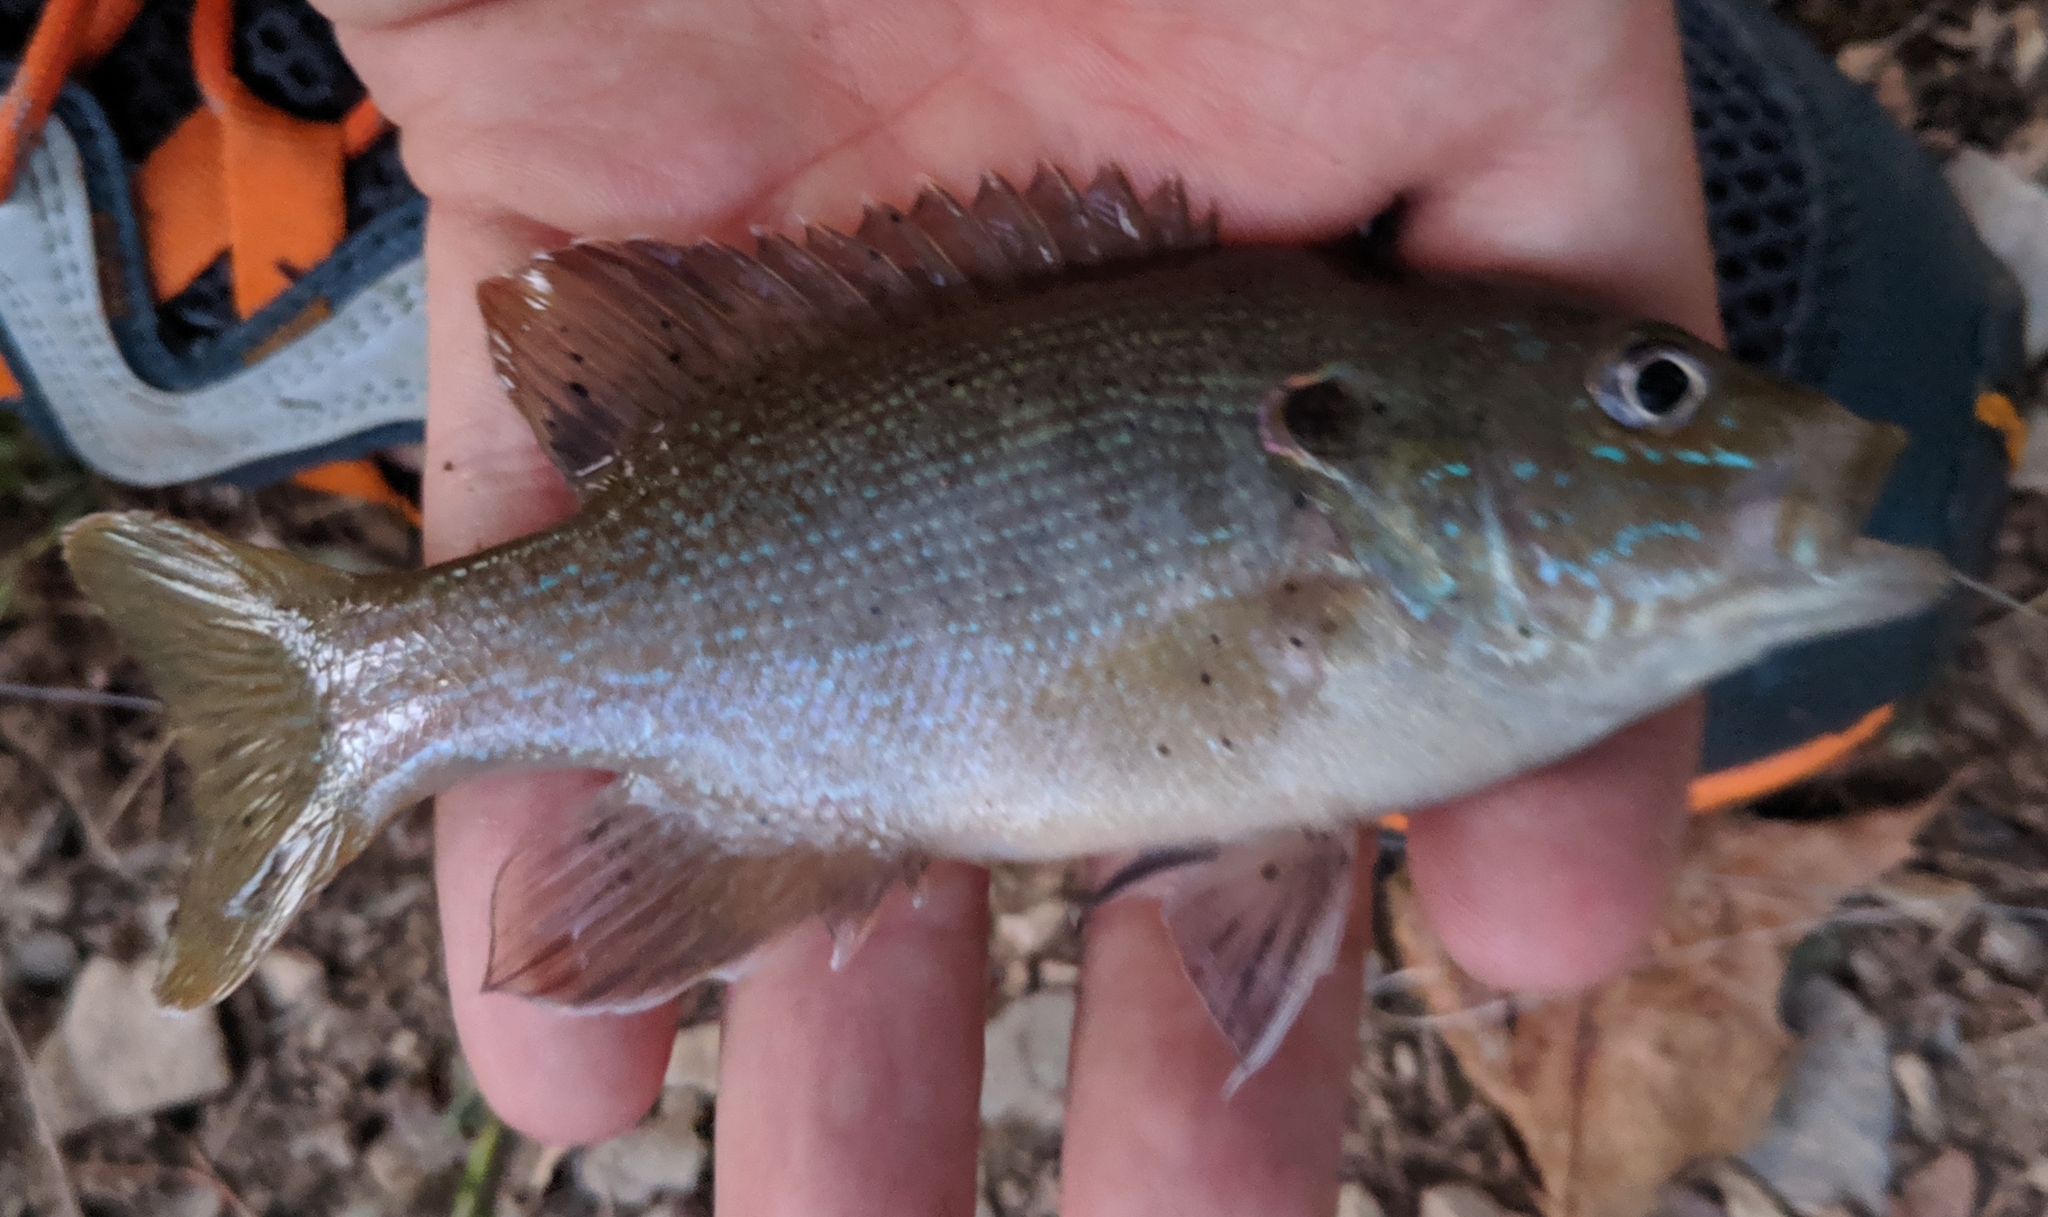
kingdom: Animalia
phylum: Chordata
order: Perciformes
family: Centrarchidae
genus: Lepomis
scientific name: Lepomis cyanellus
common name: Green sunfish
